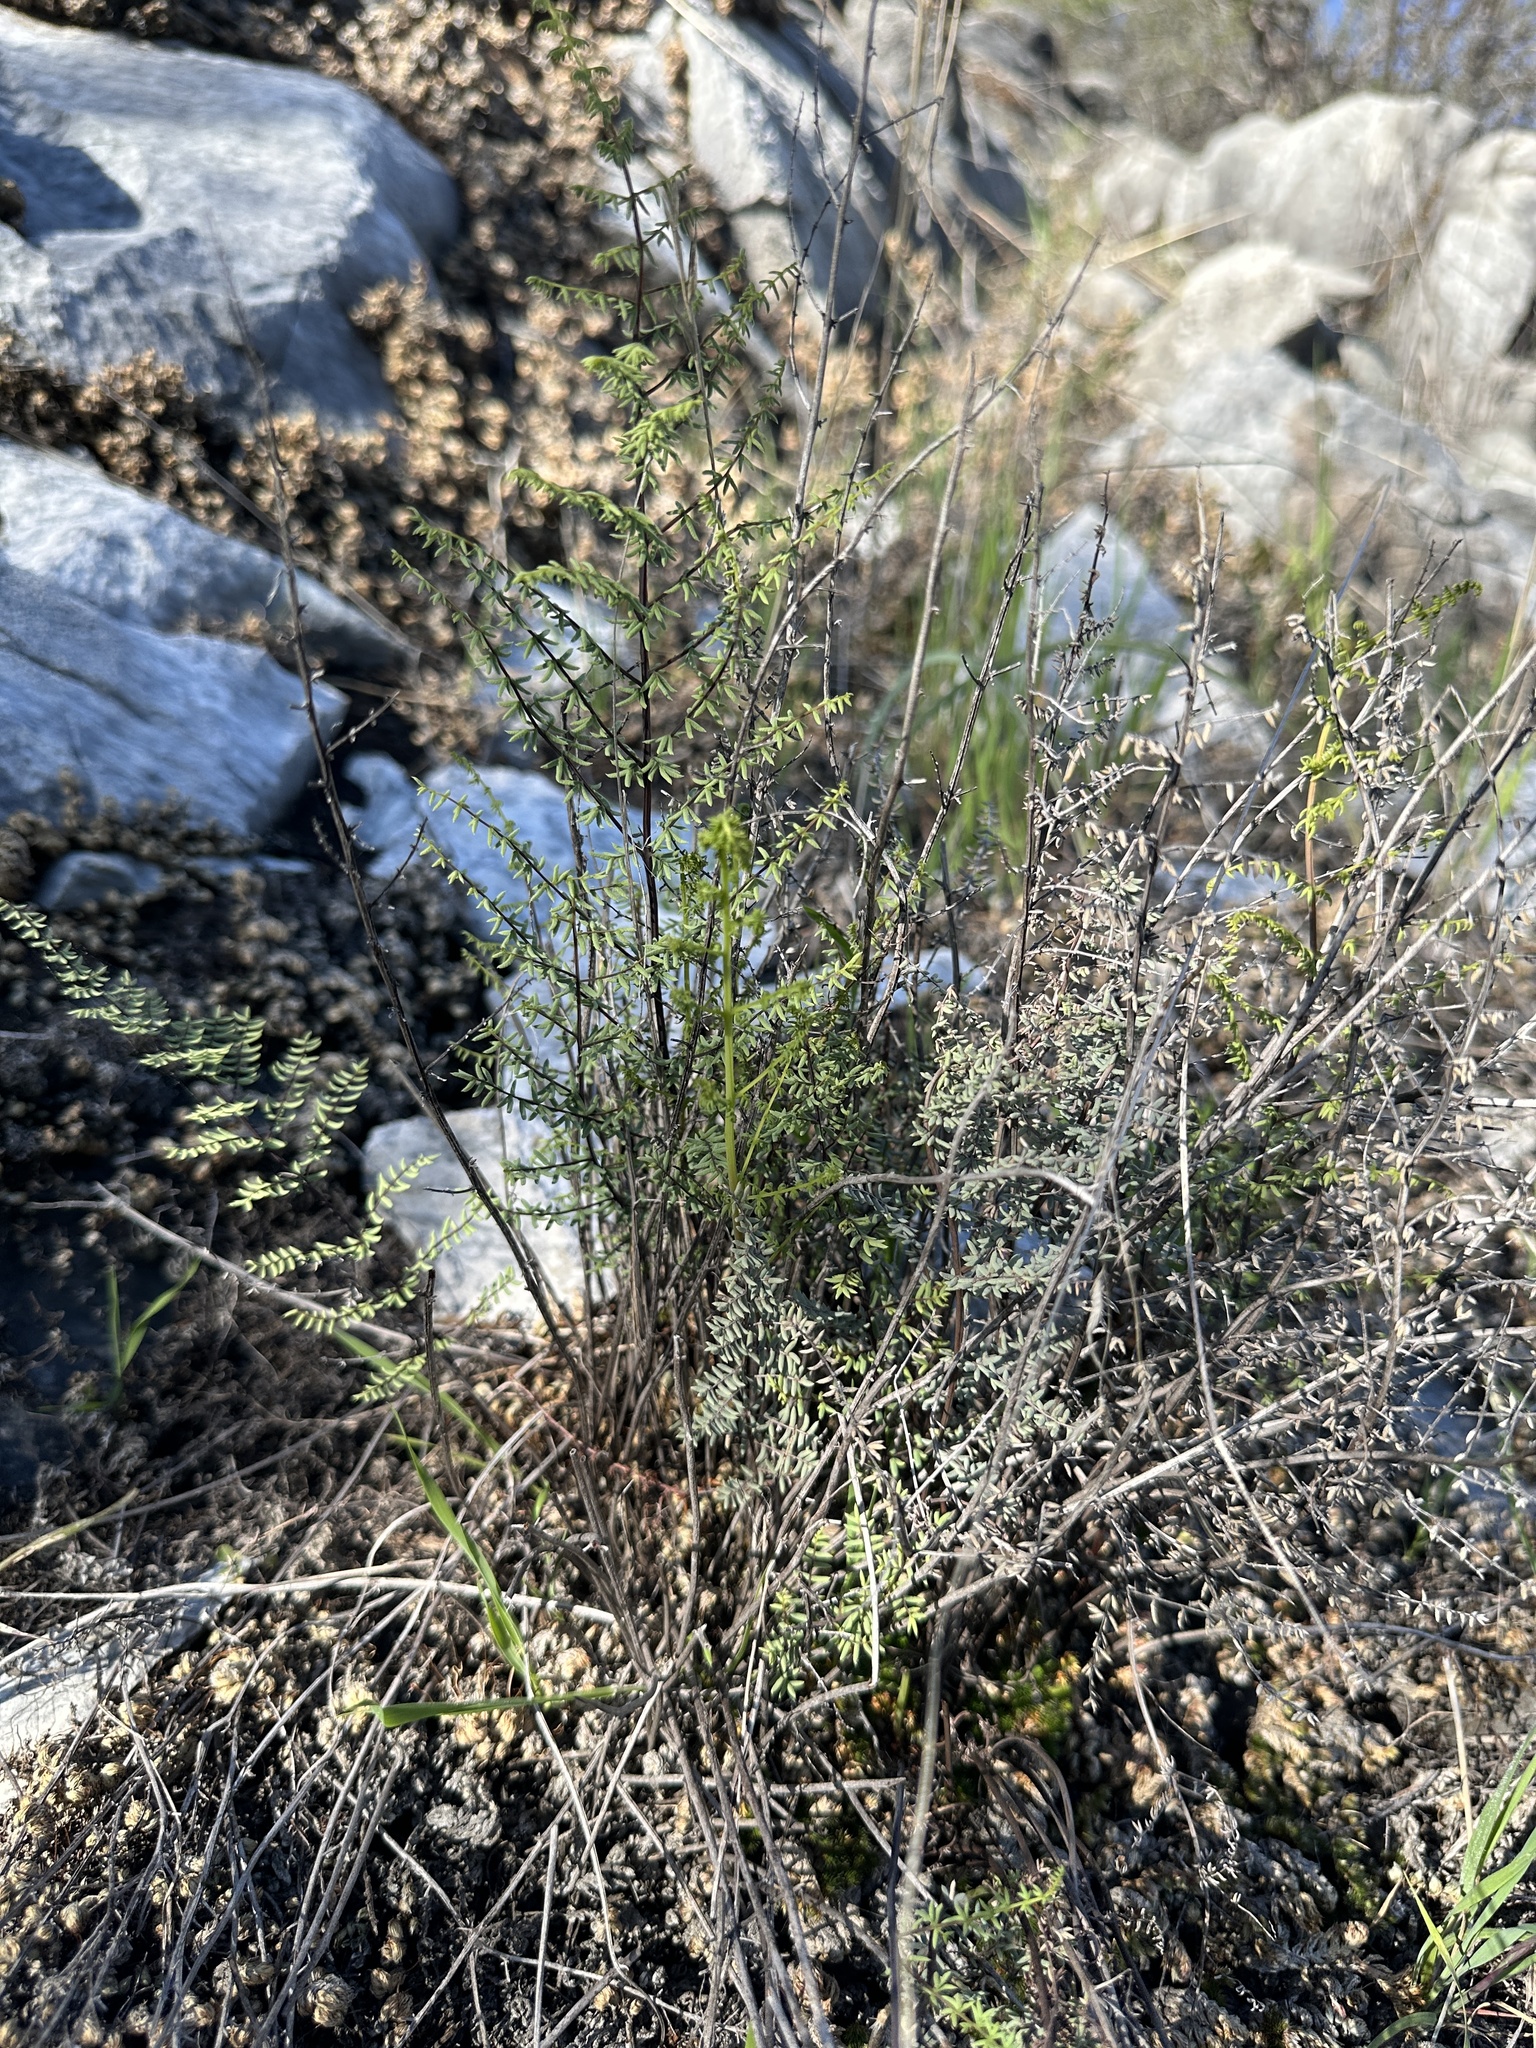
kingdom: Plantae
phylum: Tracheophyta
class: Polypodiopsida
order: Polypodiales
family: Pteridaceae
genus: Pellaea
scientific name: Pellaea mucronata
